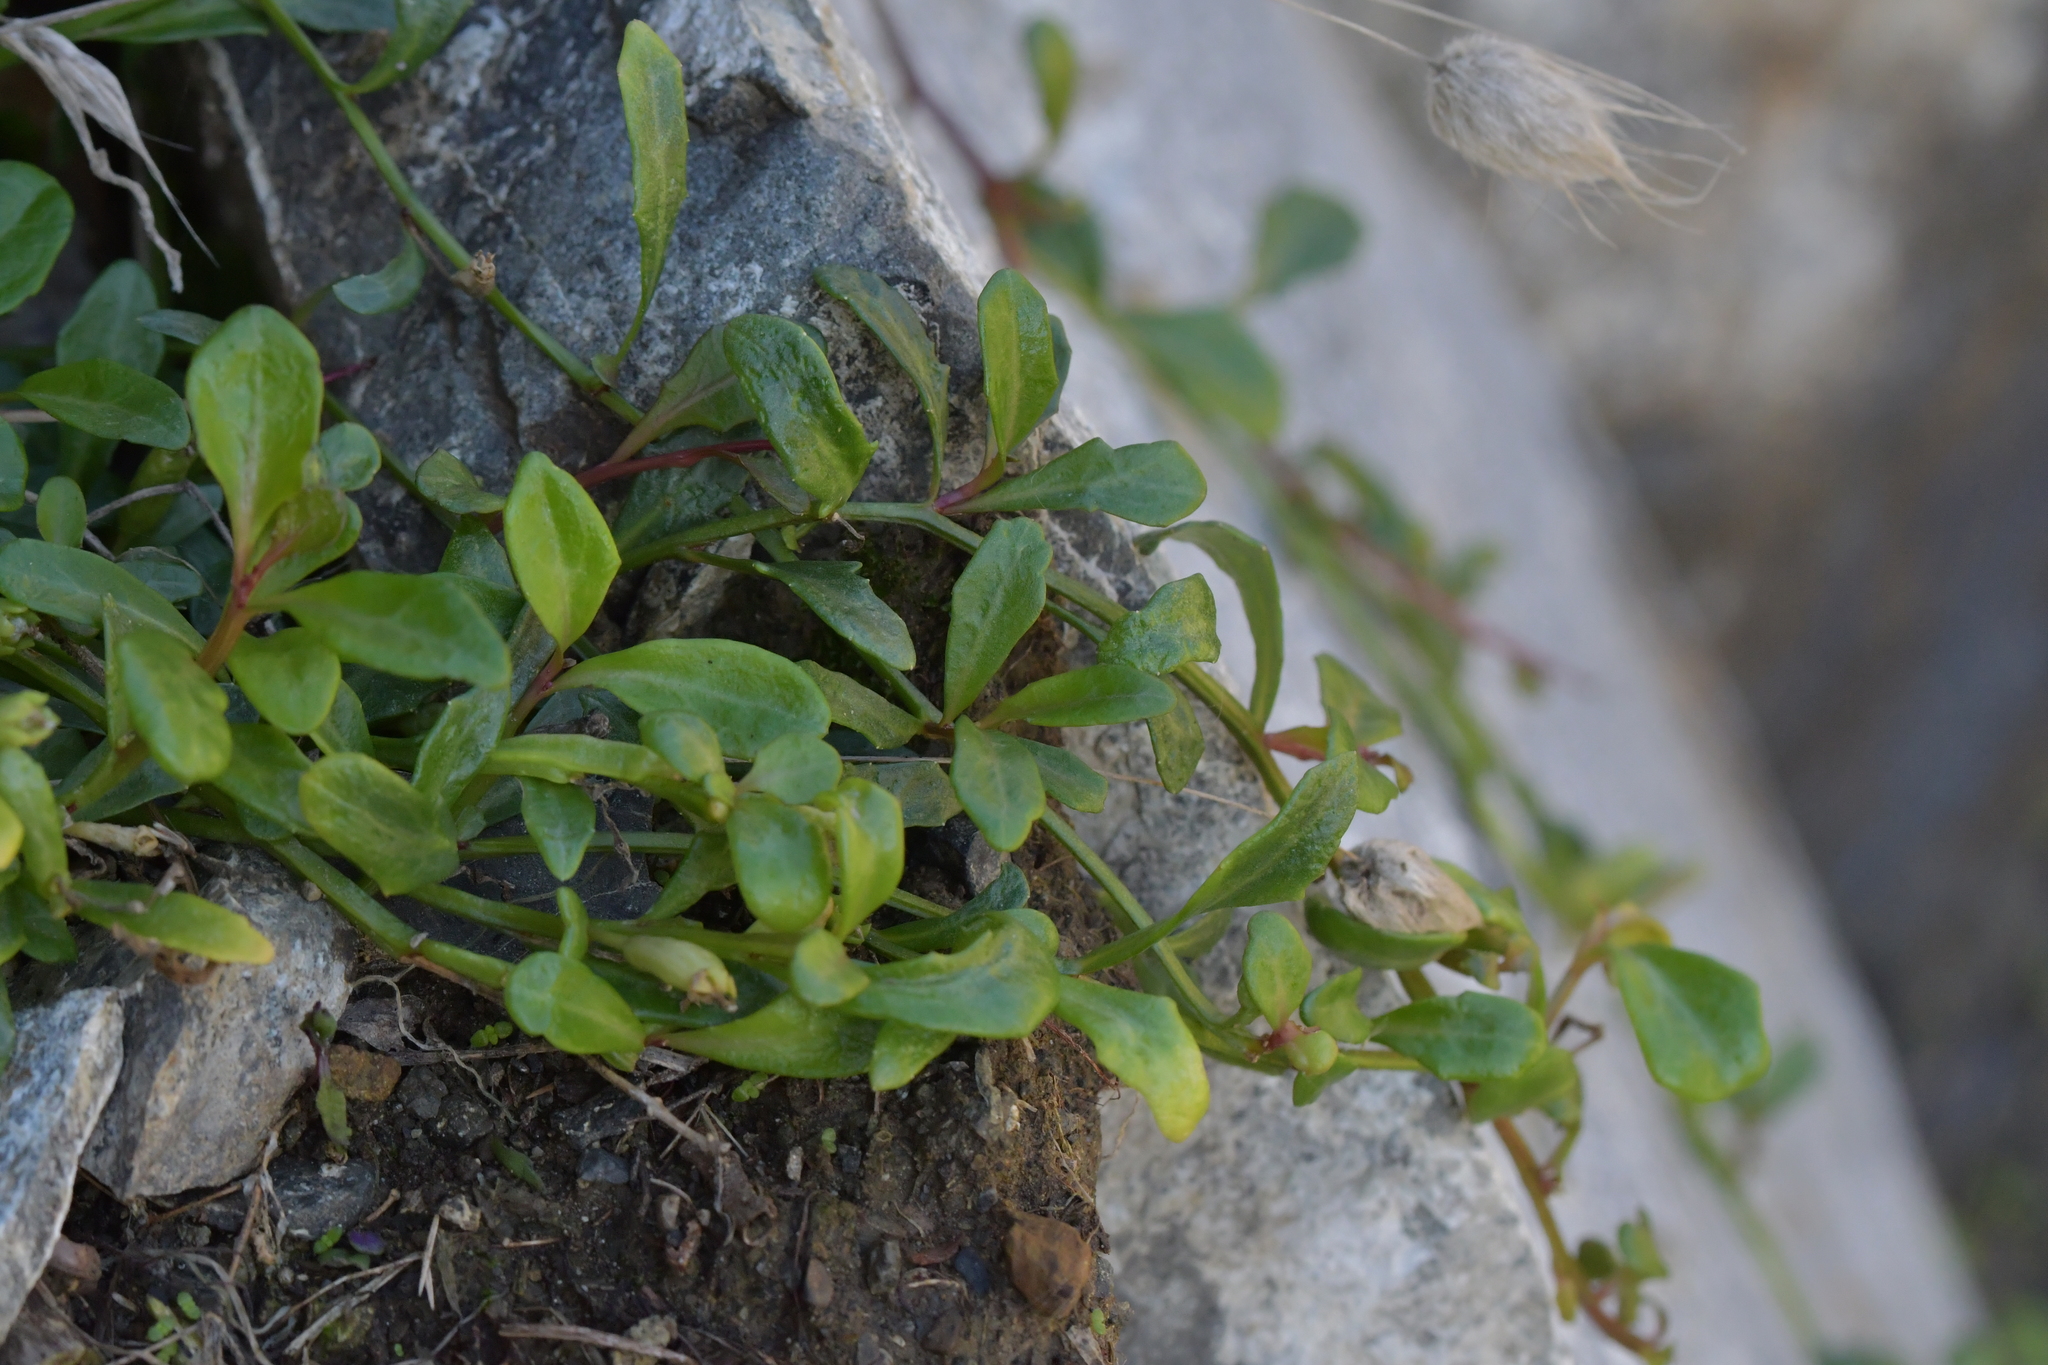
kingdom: Plantae
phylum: Tracheophyta
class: Magnoliopsida
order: Asterales
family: Campanulaceae
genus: Lobelia
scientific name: Lobelia anceps
